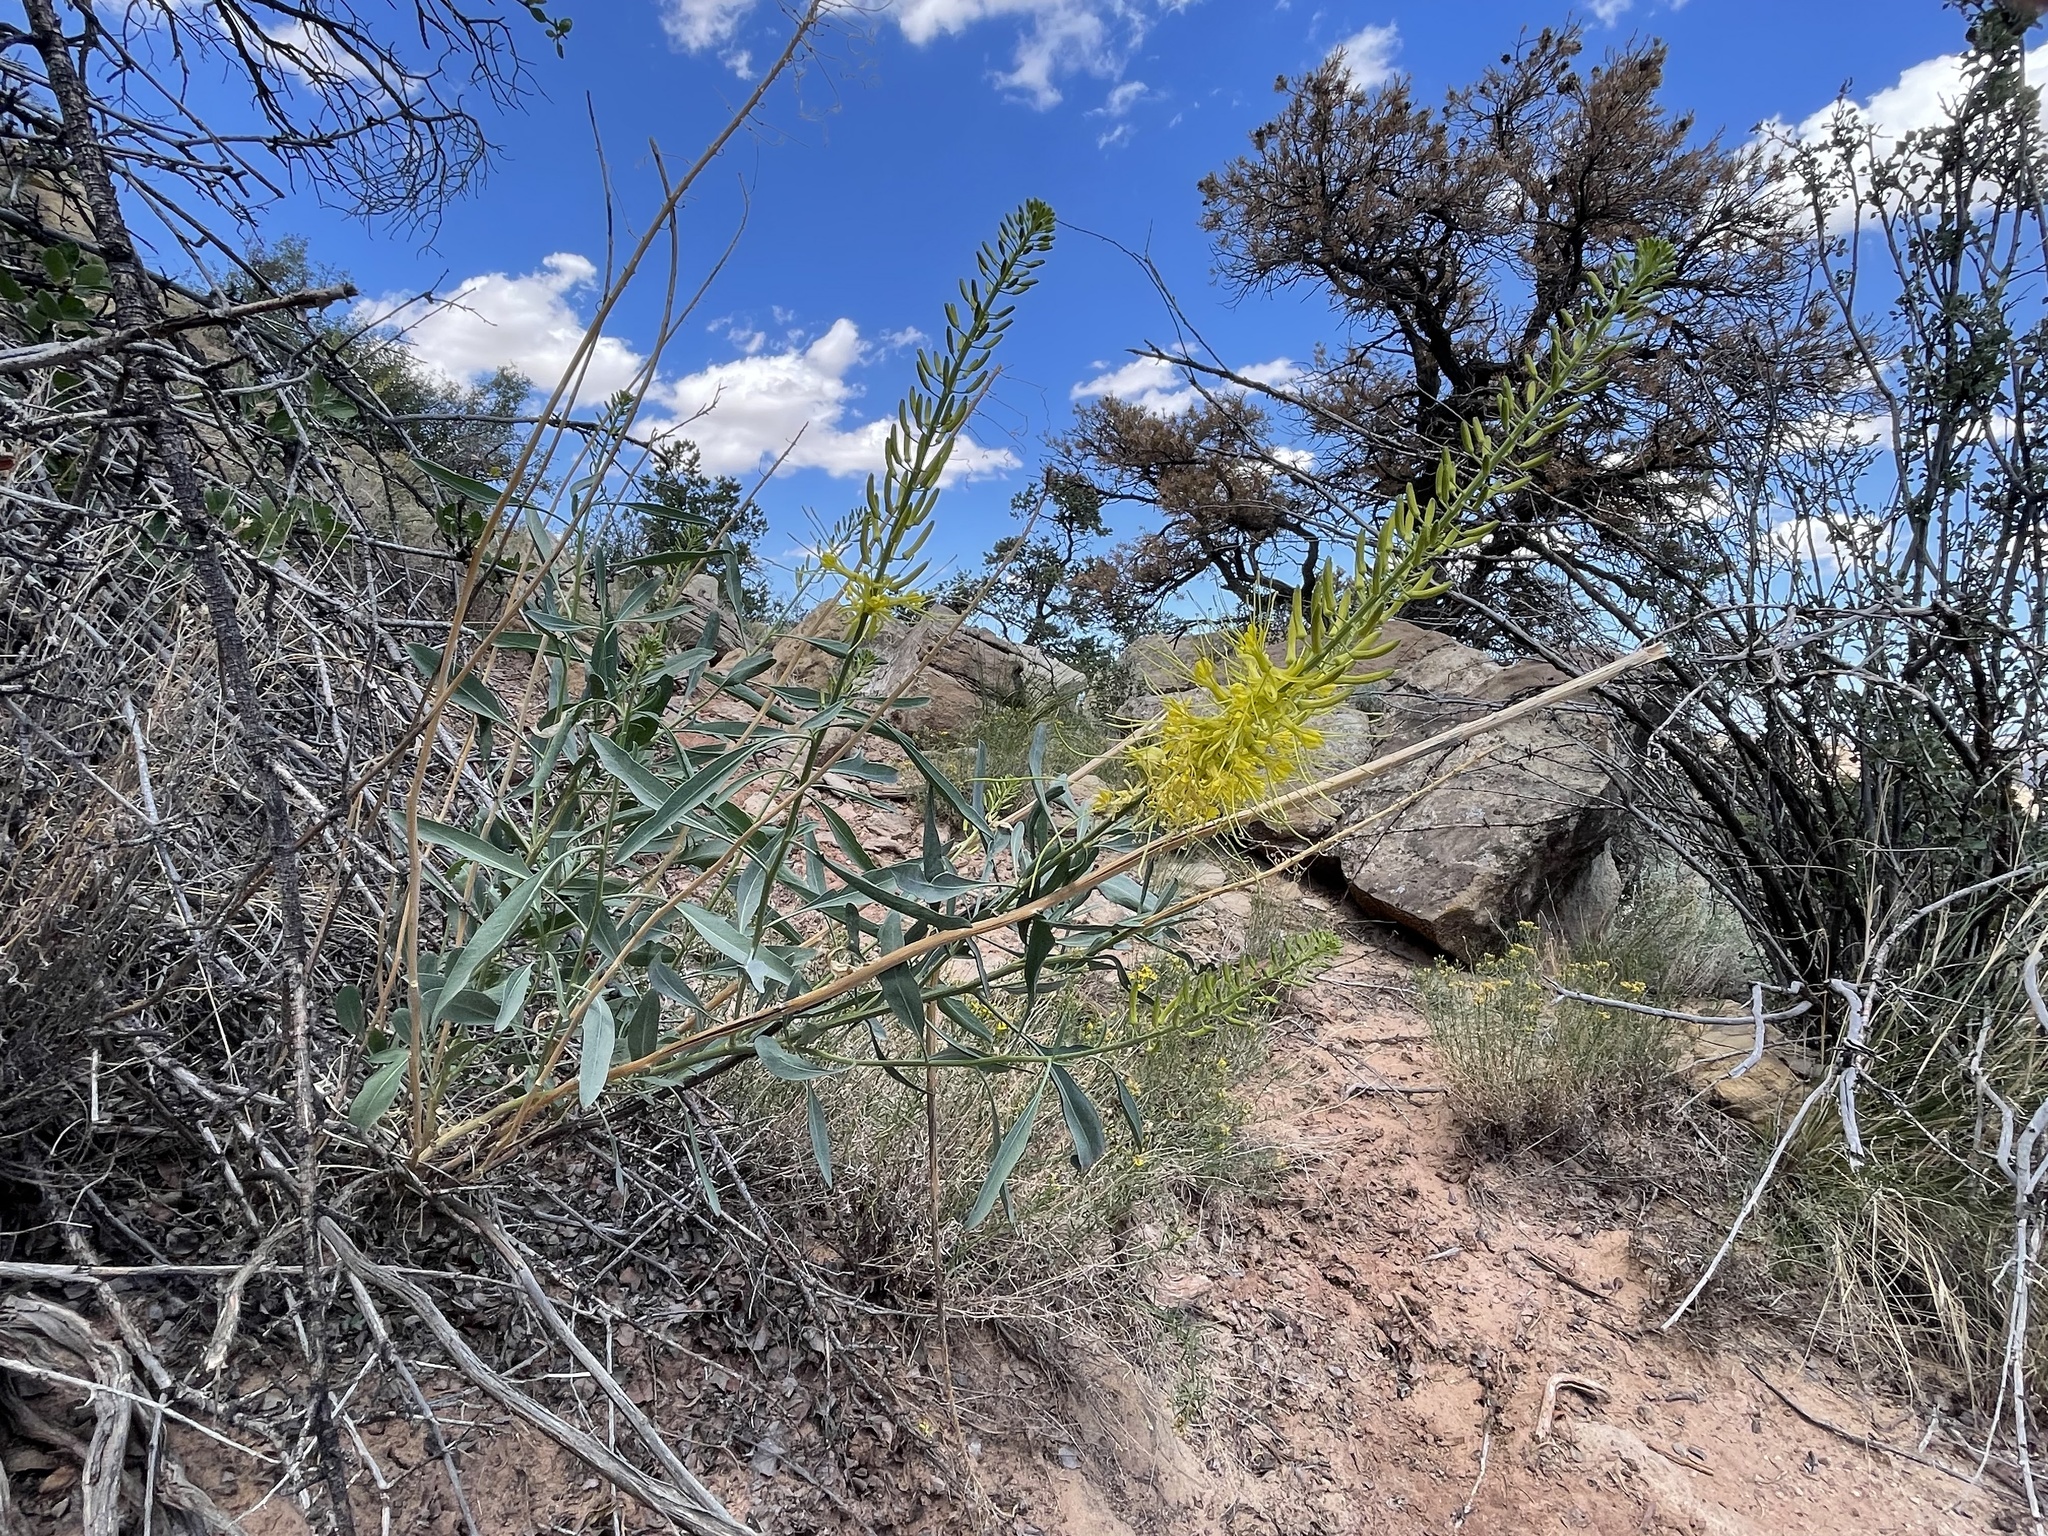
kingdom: Plantae
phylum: Tracheophyta
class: Magnoliopsida
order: Brassicales
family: Brassicaceae
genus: Stanleya
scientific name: Stanleya pinnata
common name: Prince's-plume
